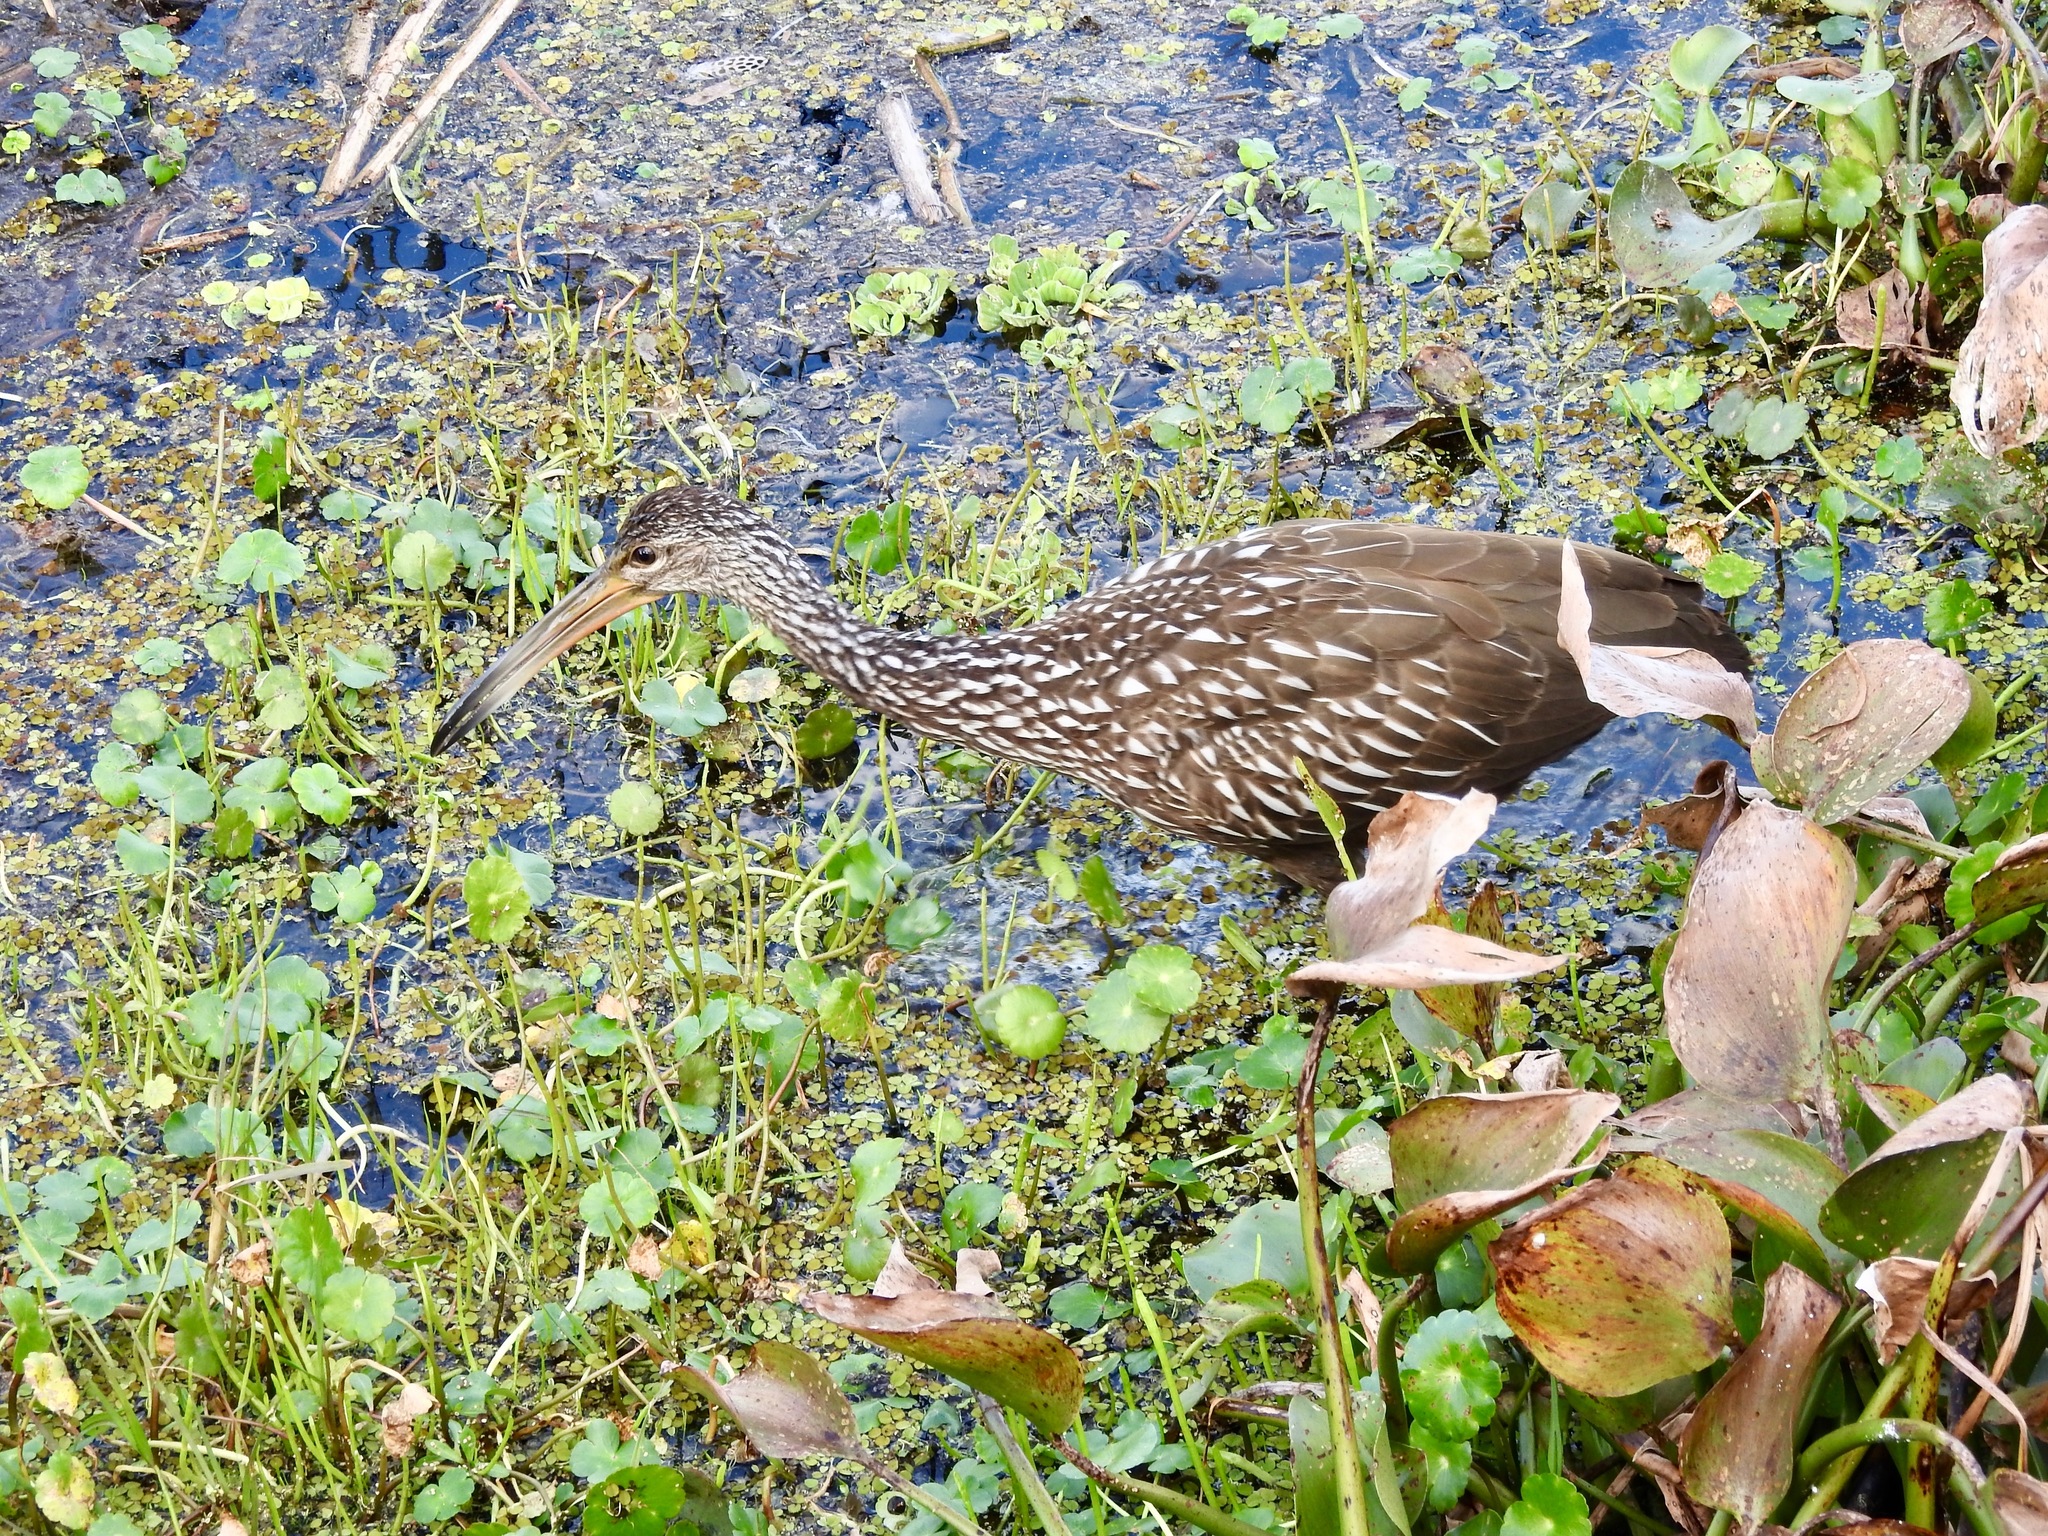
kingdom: Animalia
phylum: Chordata
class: Aves
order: Gruiformes
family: Aramidae
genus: Aramus
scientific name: Aramus guarauna
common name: Limpkin
